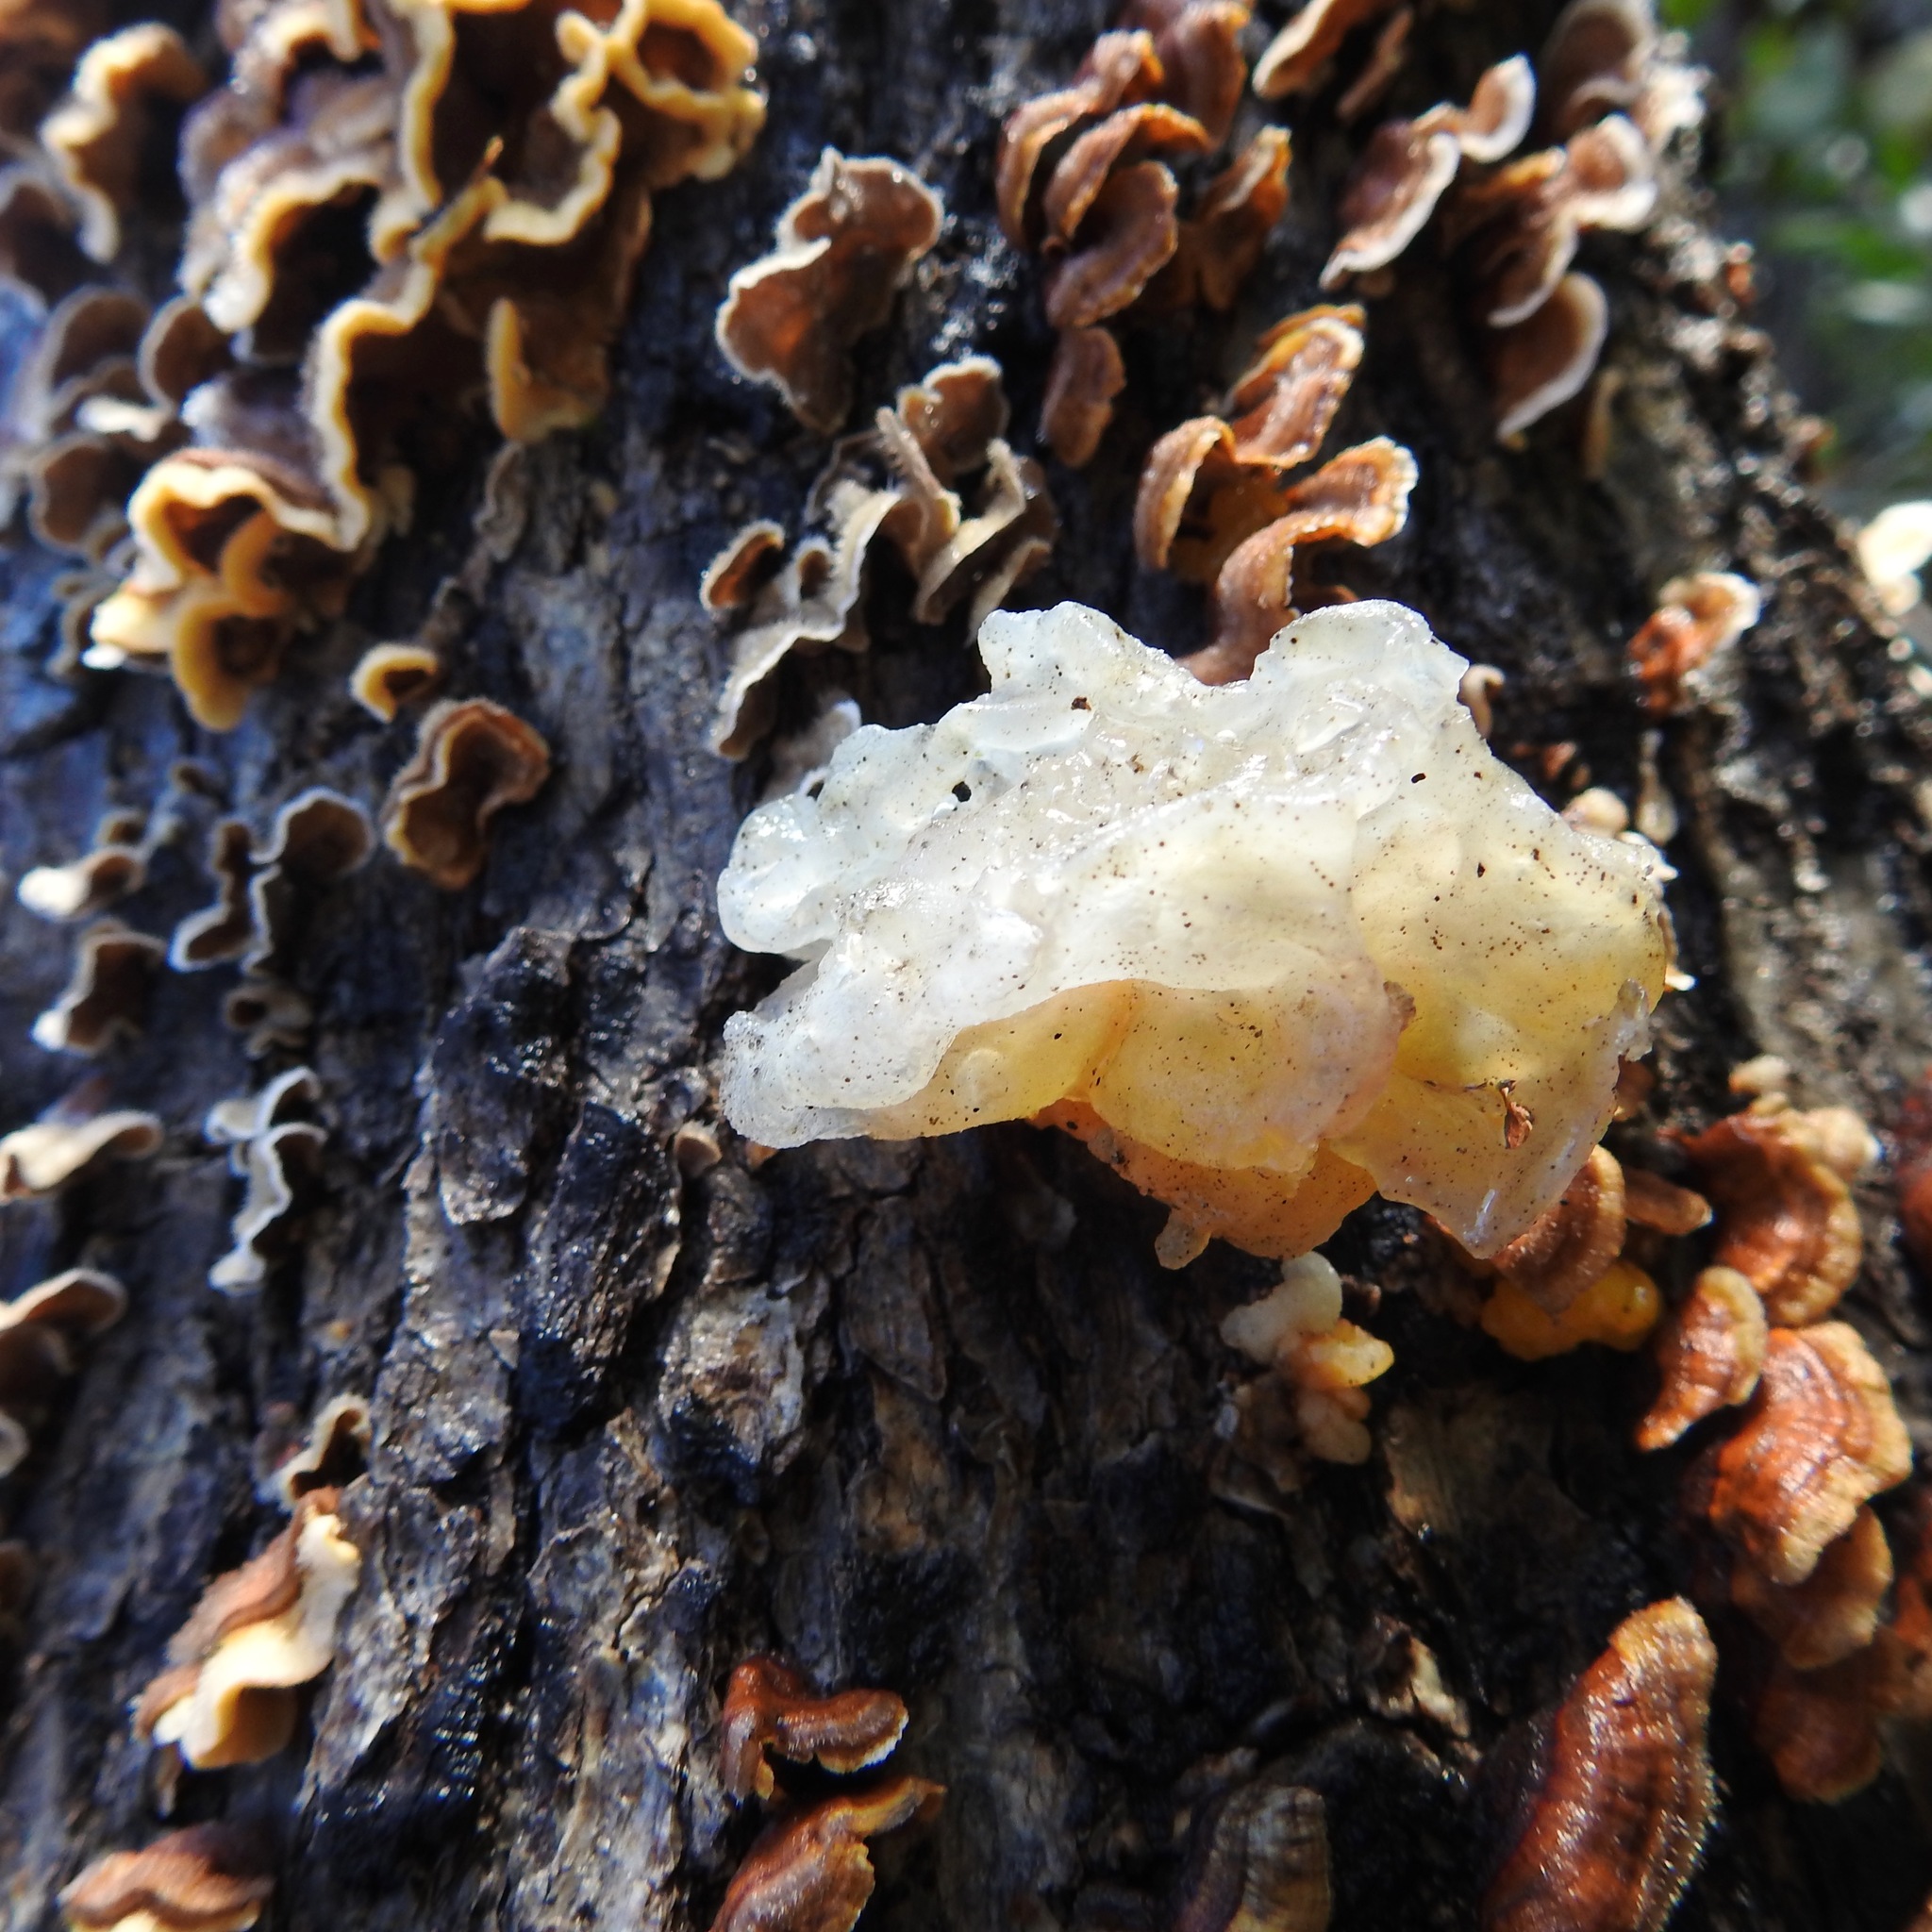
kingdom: Fungi
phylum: Basidiomycota
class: Tremellomycetes
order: Tremellales
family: Naemateliaceae
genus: Naematelia
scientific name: Naematelia aurantia
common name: Golden ear
